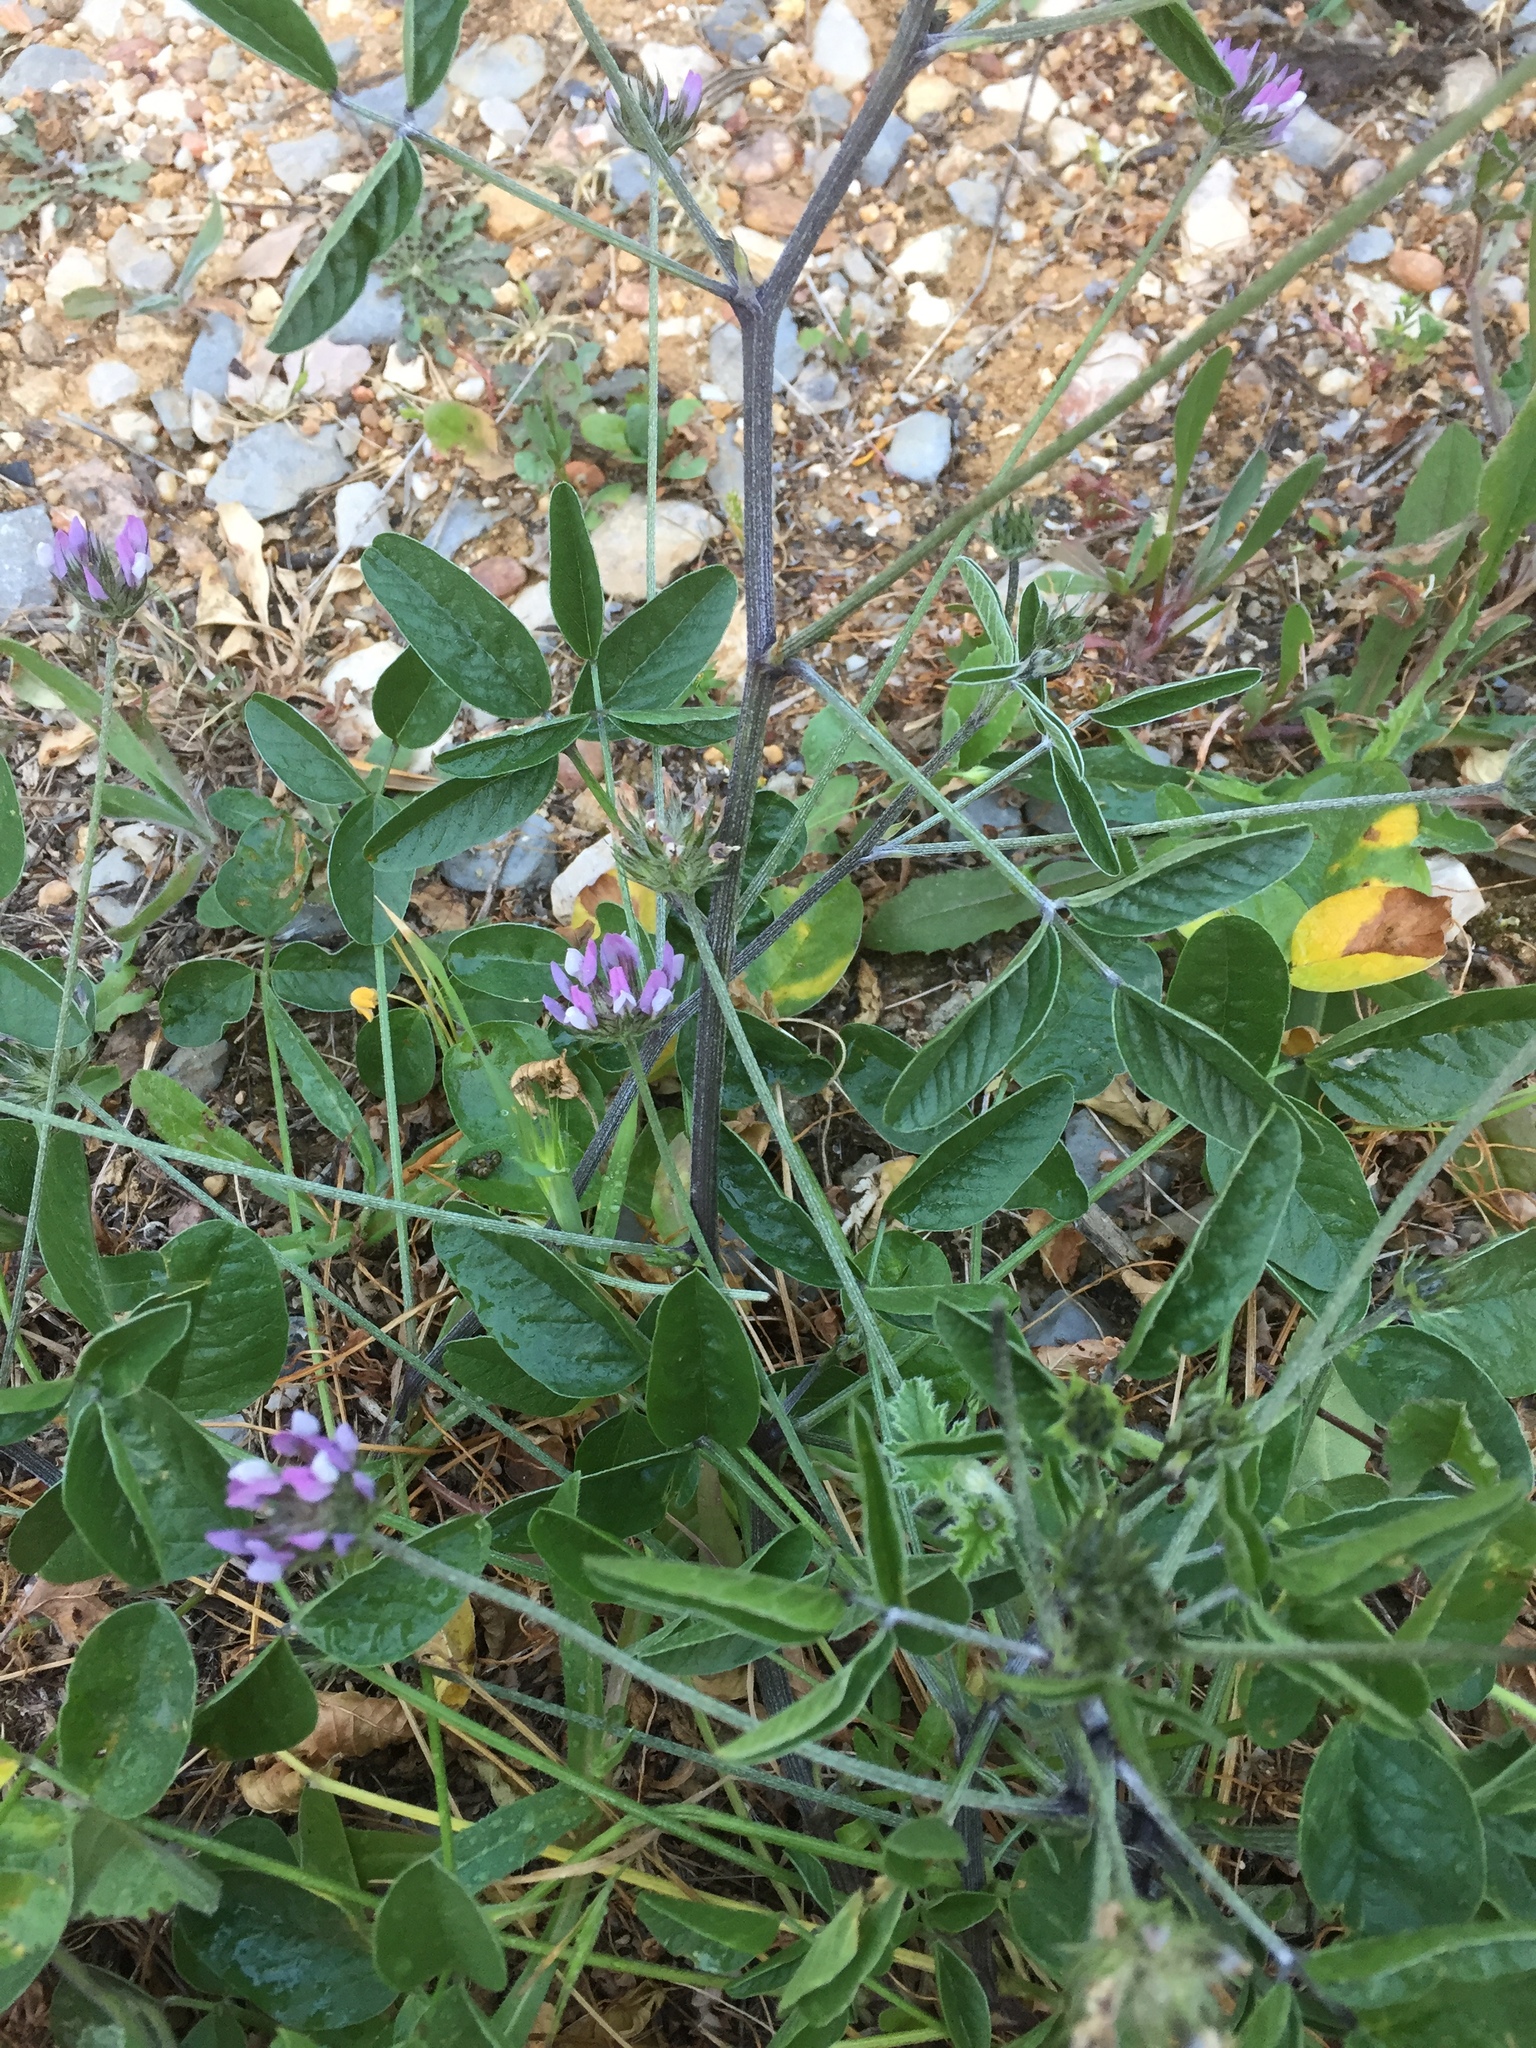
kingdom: Plantae
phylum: Tracheophyta
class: Magnoliopsida
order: Fabales
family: Fabaceae
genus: Bituminaria
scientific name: Bituminaria bituminosa
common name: Arabian pea
